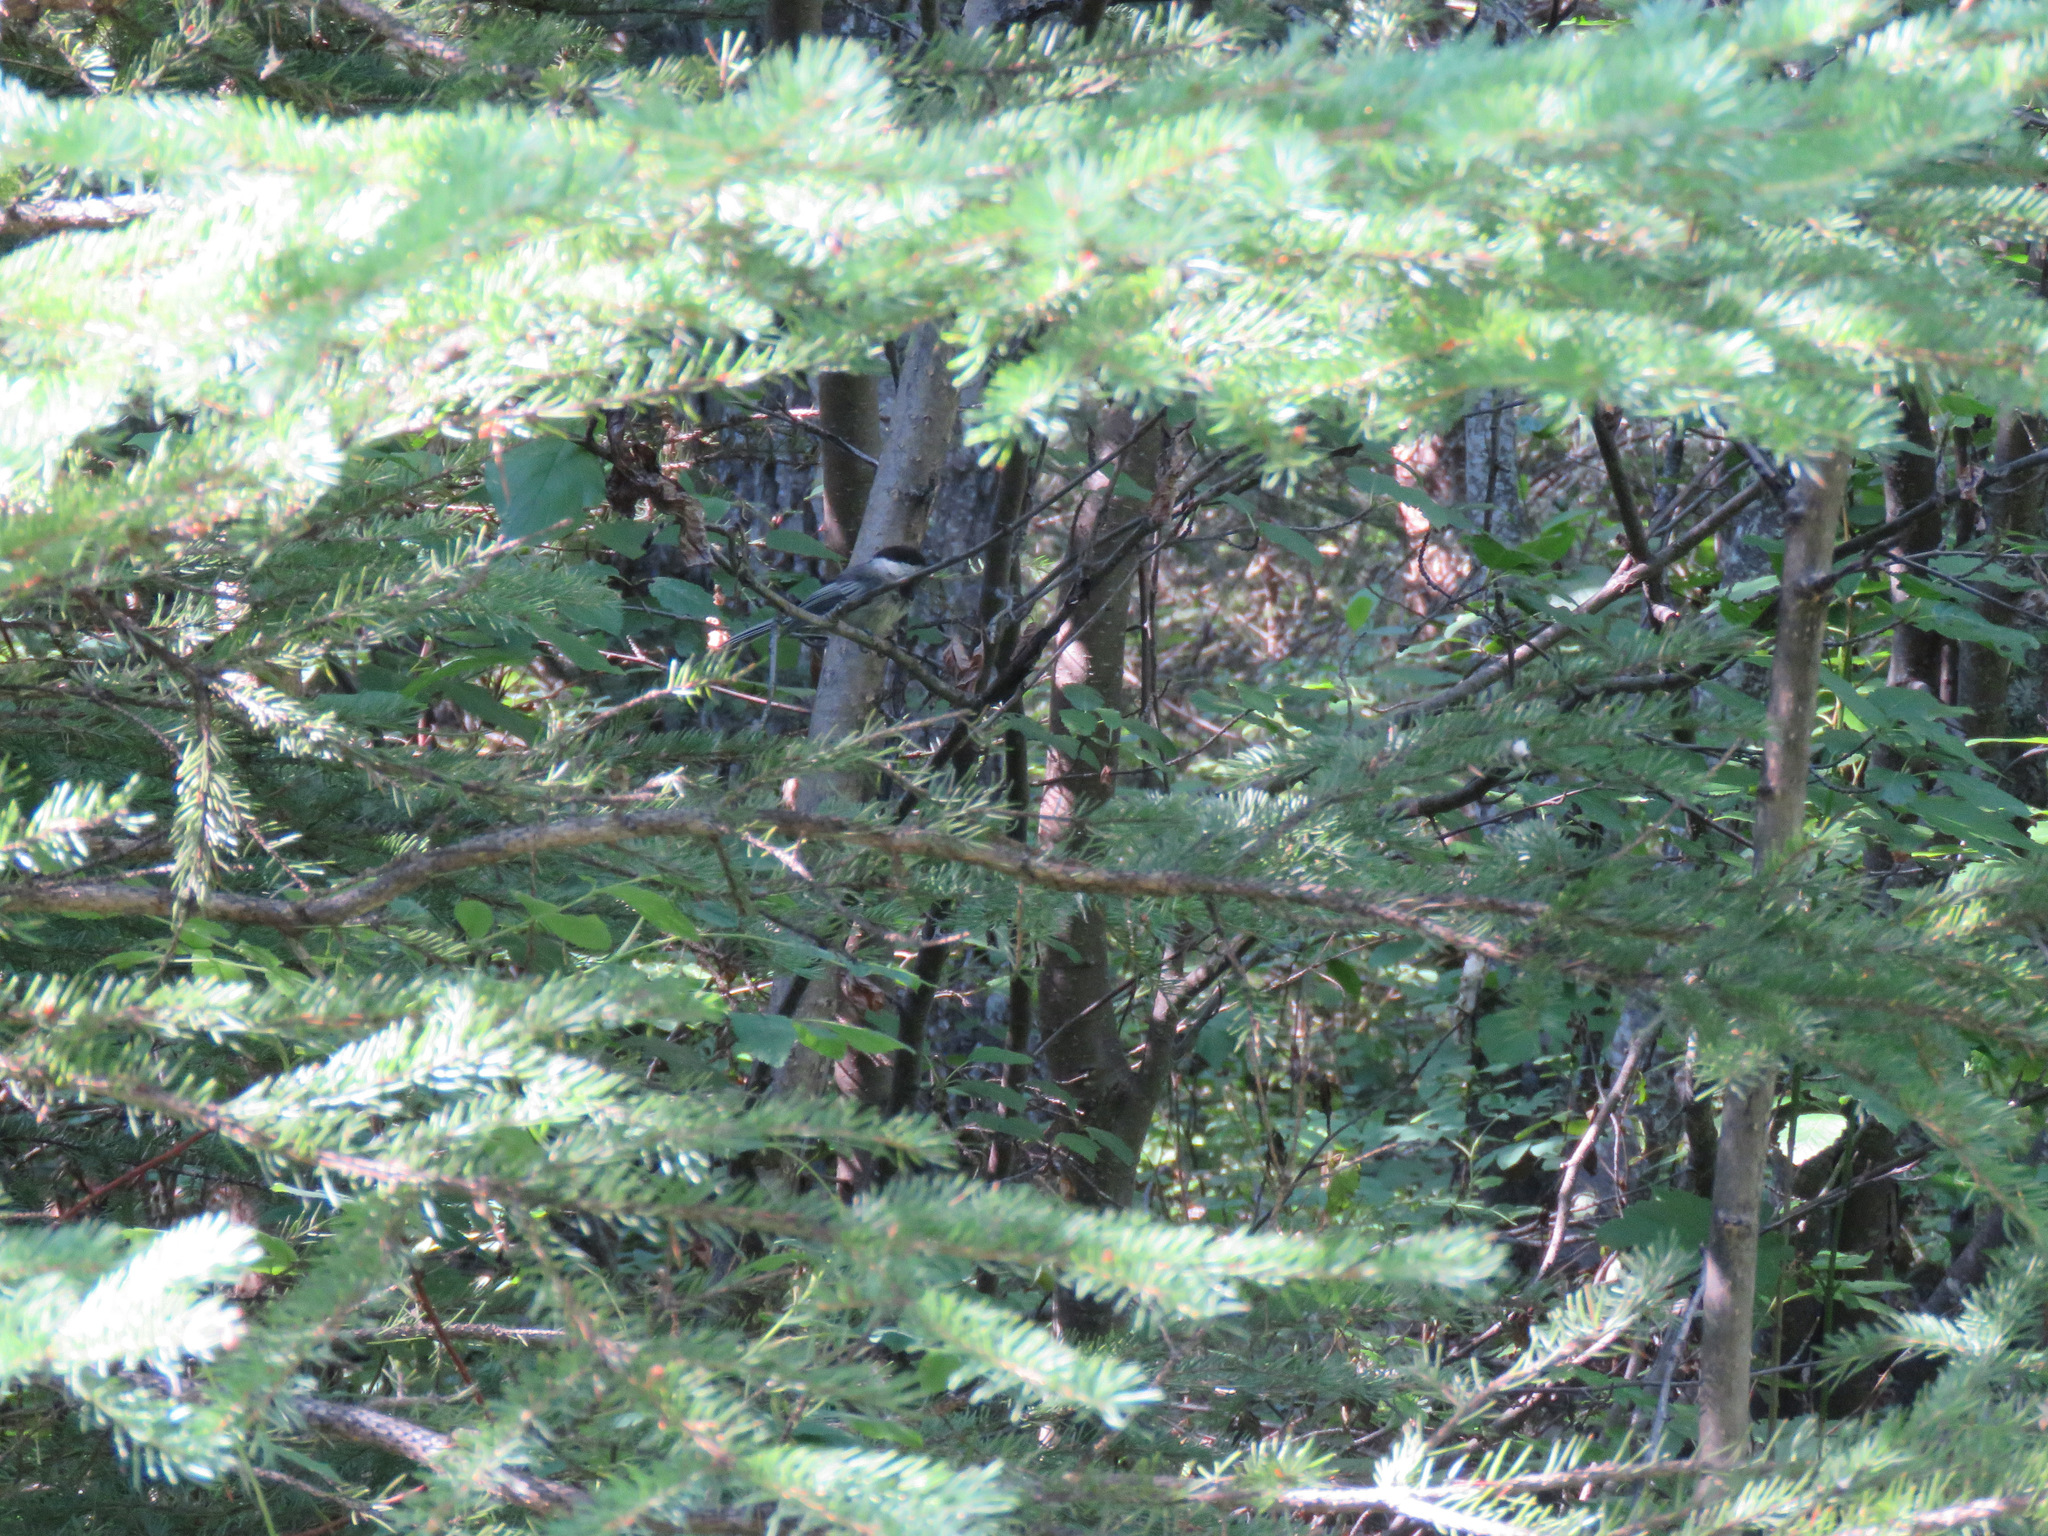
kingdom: Animalia
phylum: Chordata
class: Aves
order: Passeriformes
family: Paridae
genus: Poecile
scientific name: Poecile atricapillus
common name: Black-capped chickadee
